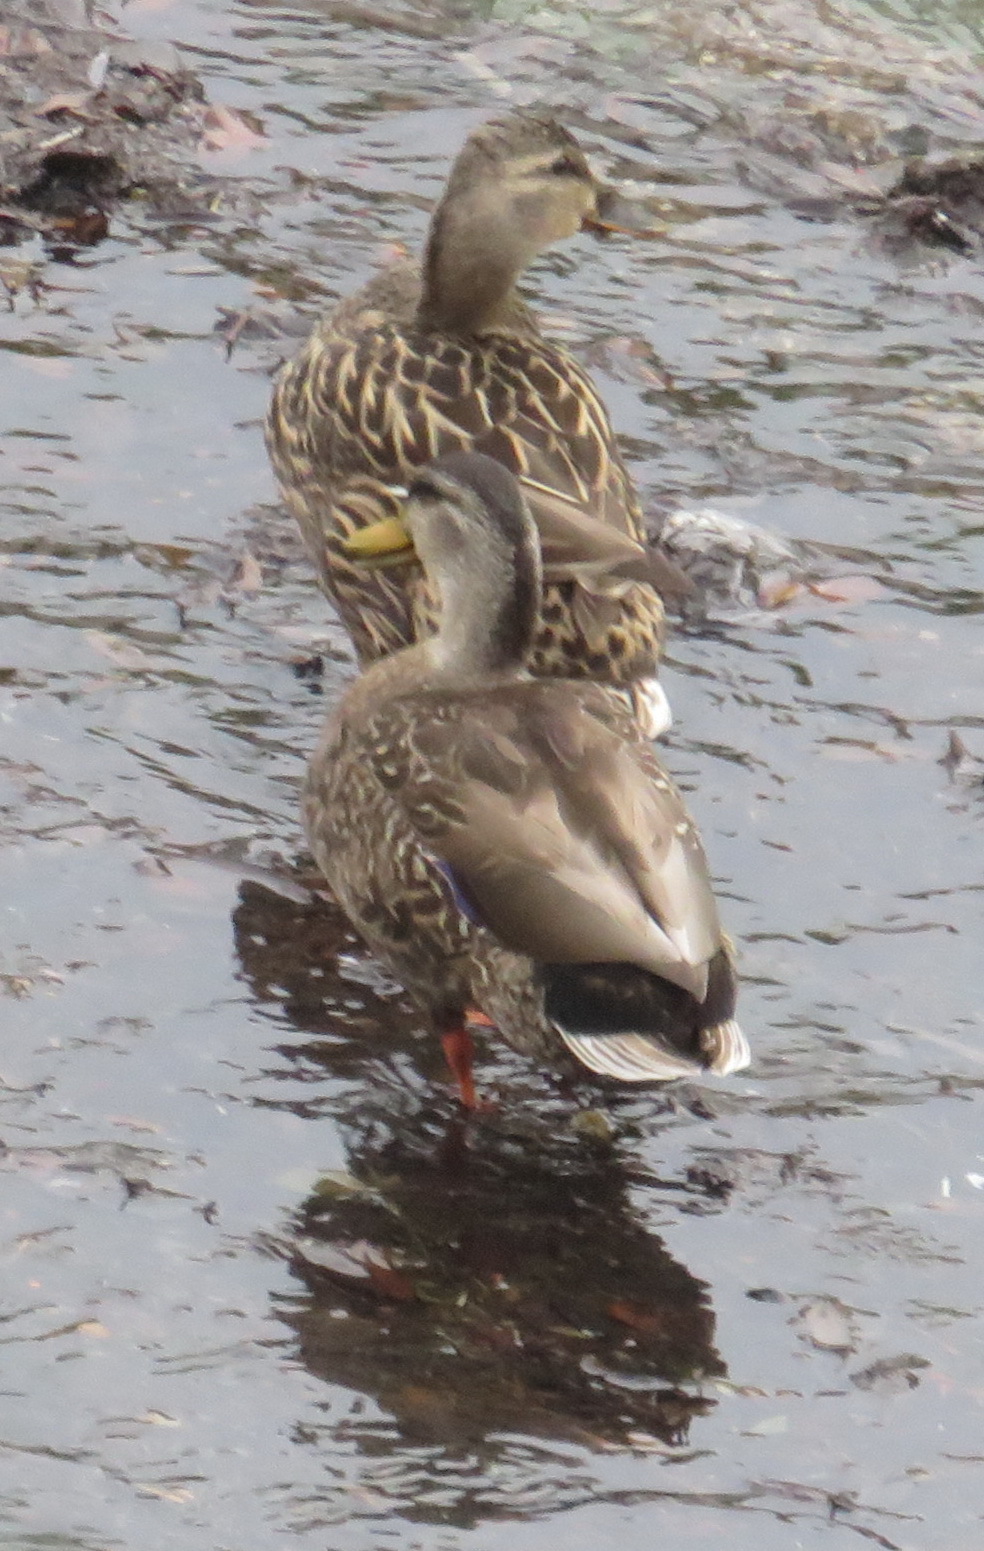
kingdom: Animalia
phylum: Chordata
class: Aves
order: Anseriformes
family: Anatidae
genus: Anas
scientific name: Anas platyrhynchos
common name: Mallard
